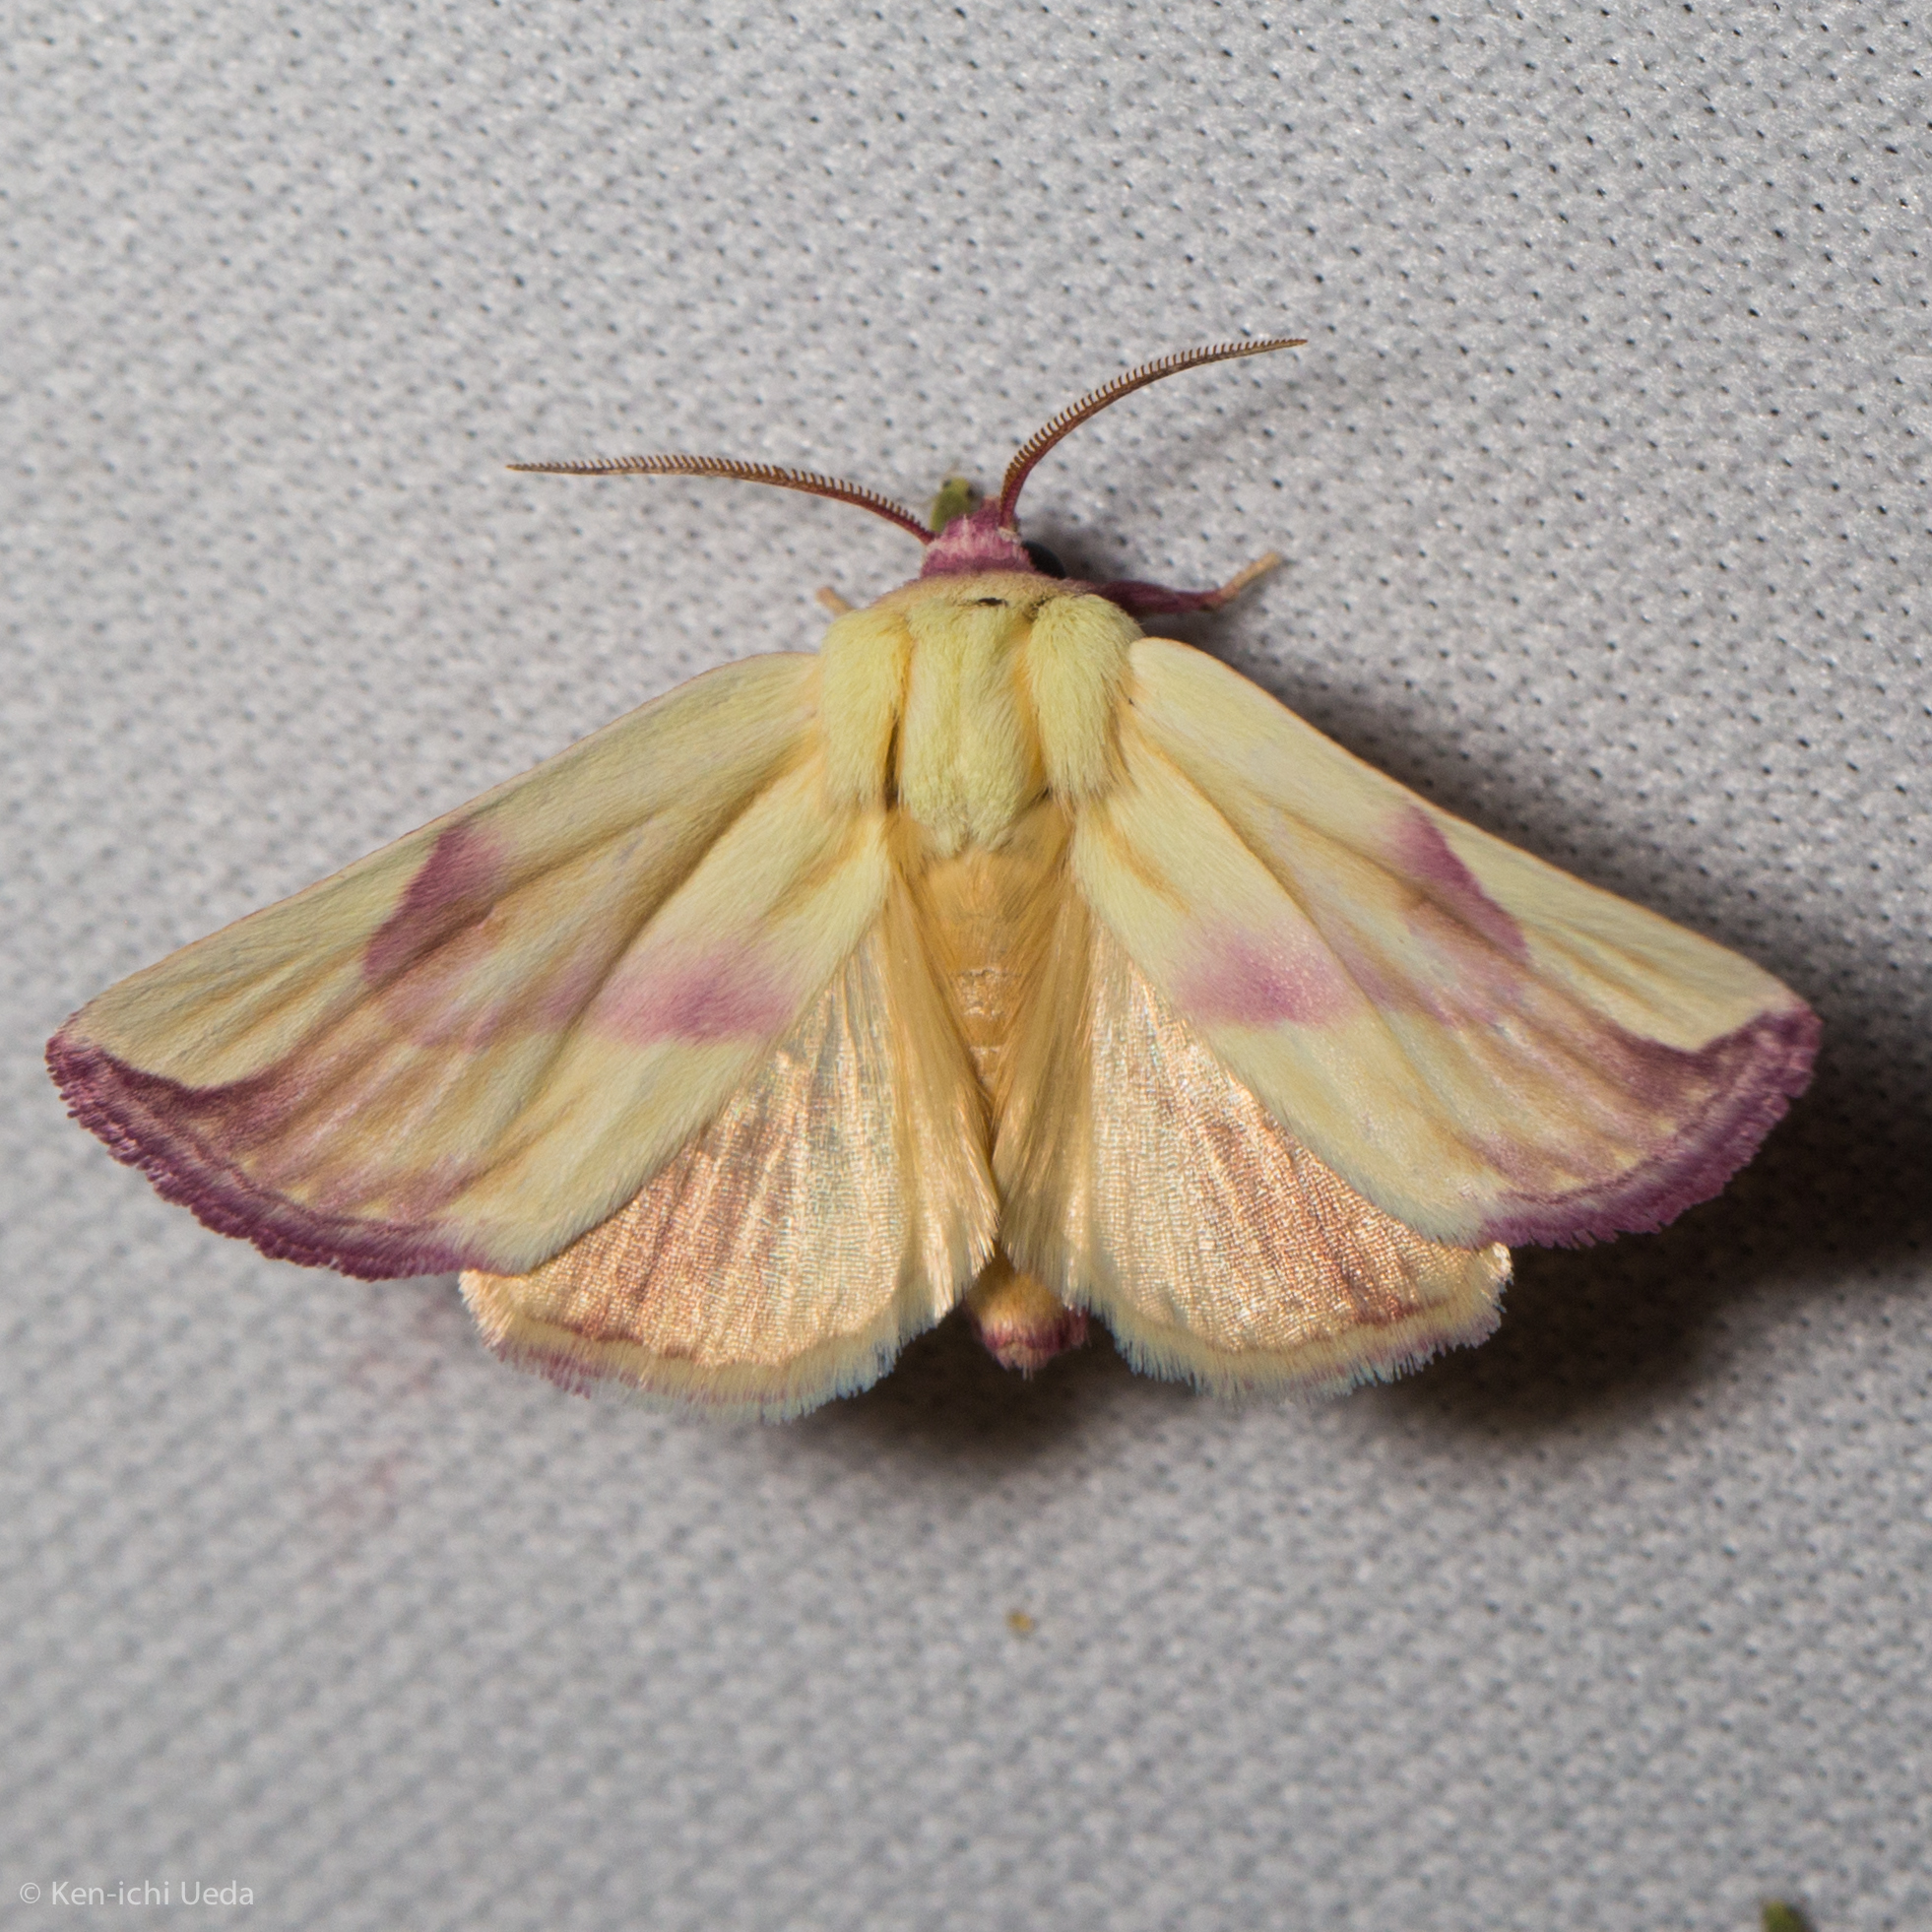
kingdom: Animalia
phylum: Arthropoda
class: Insecta
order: Lepidoptera
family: Noctuidae
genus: Thurberiphaga
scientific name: Thurberiphaga diffusa
